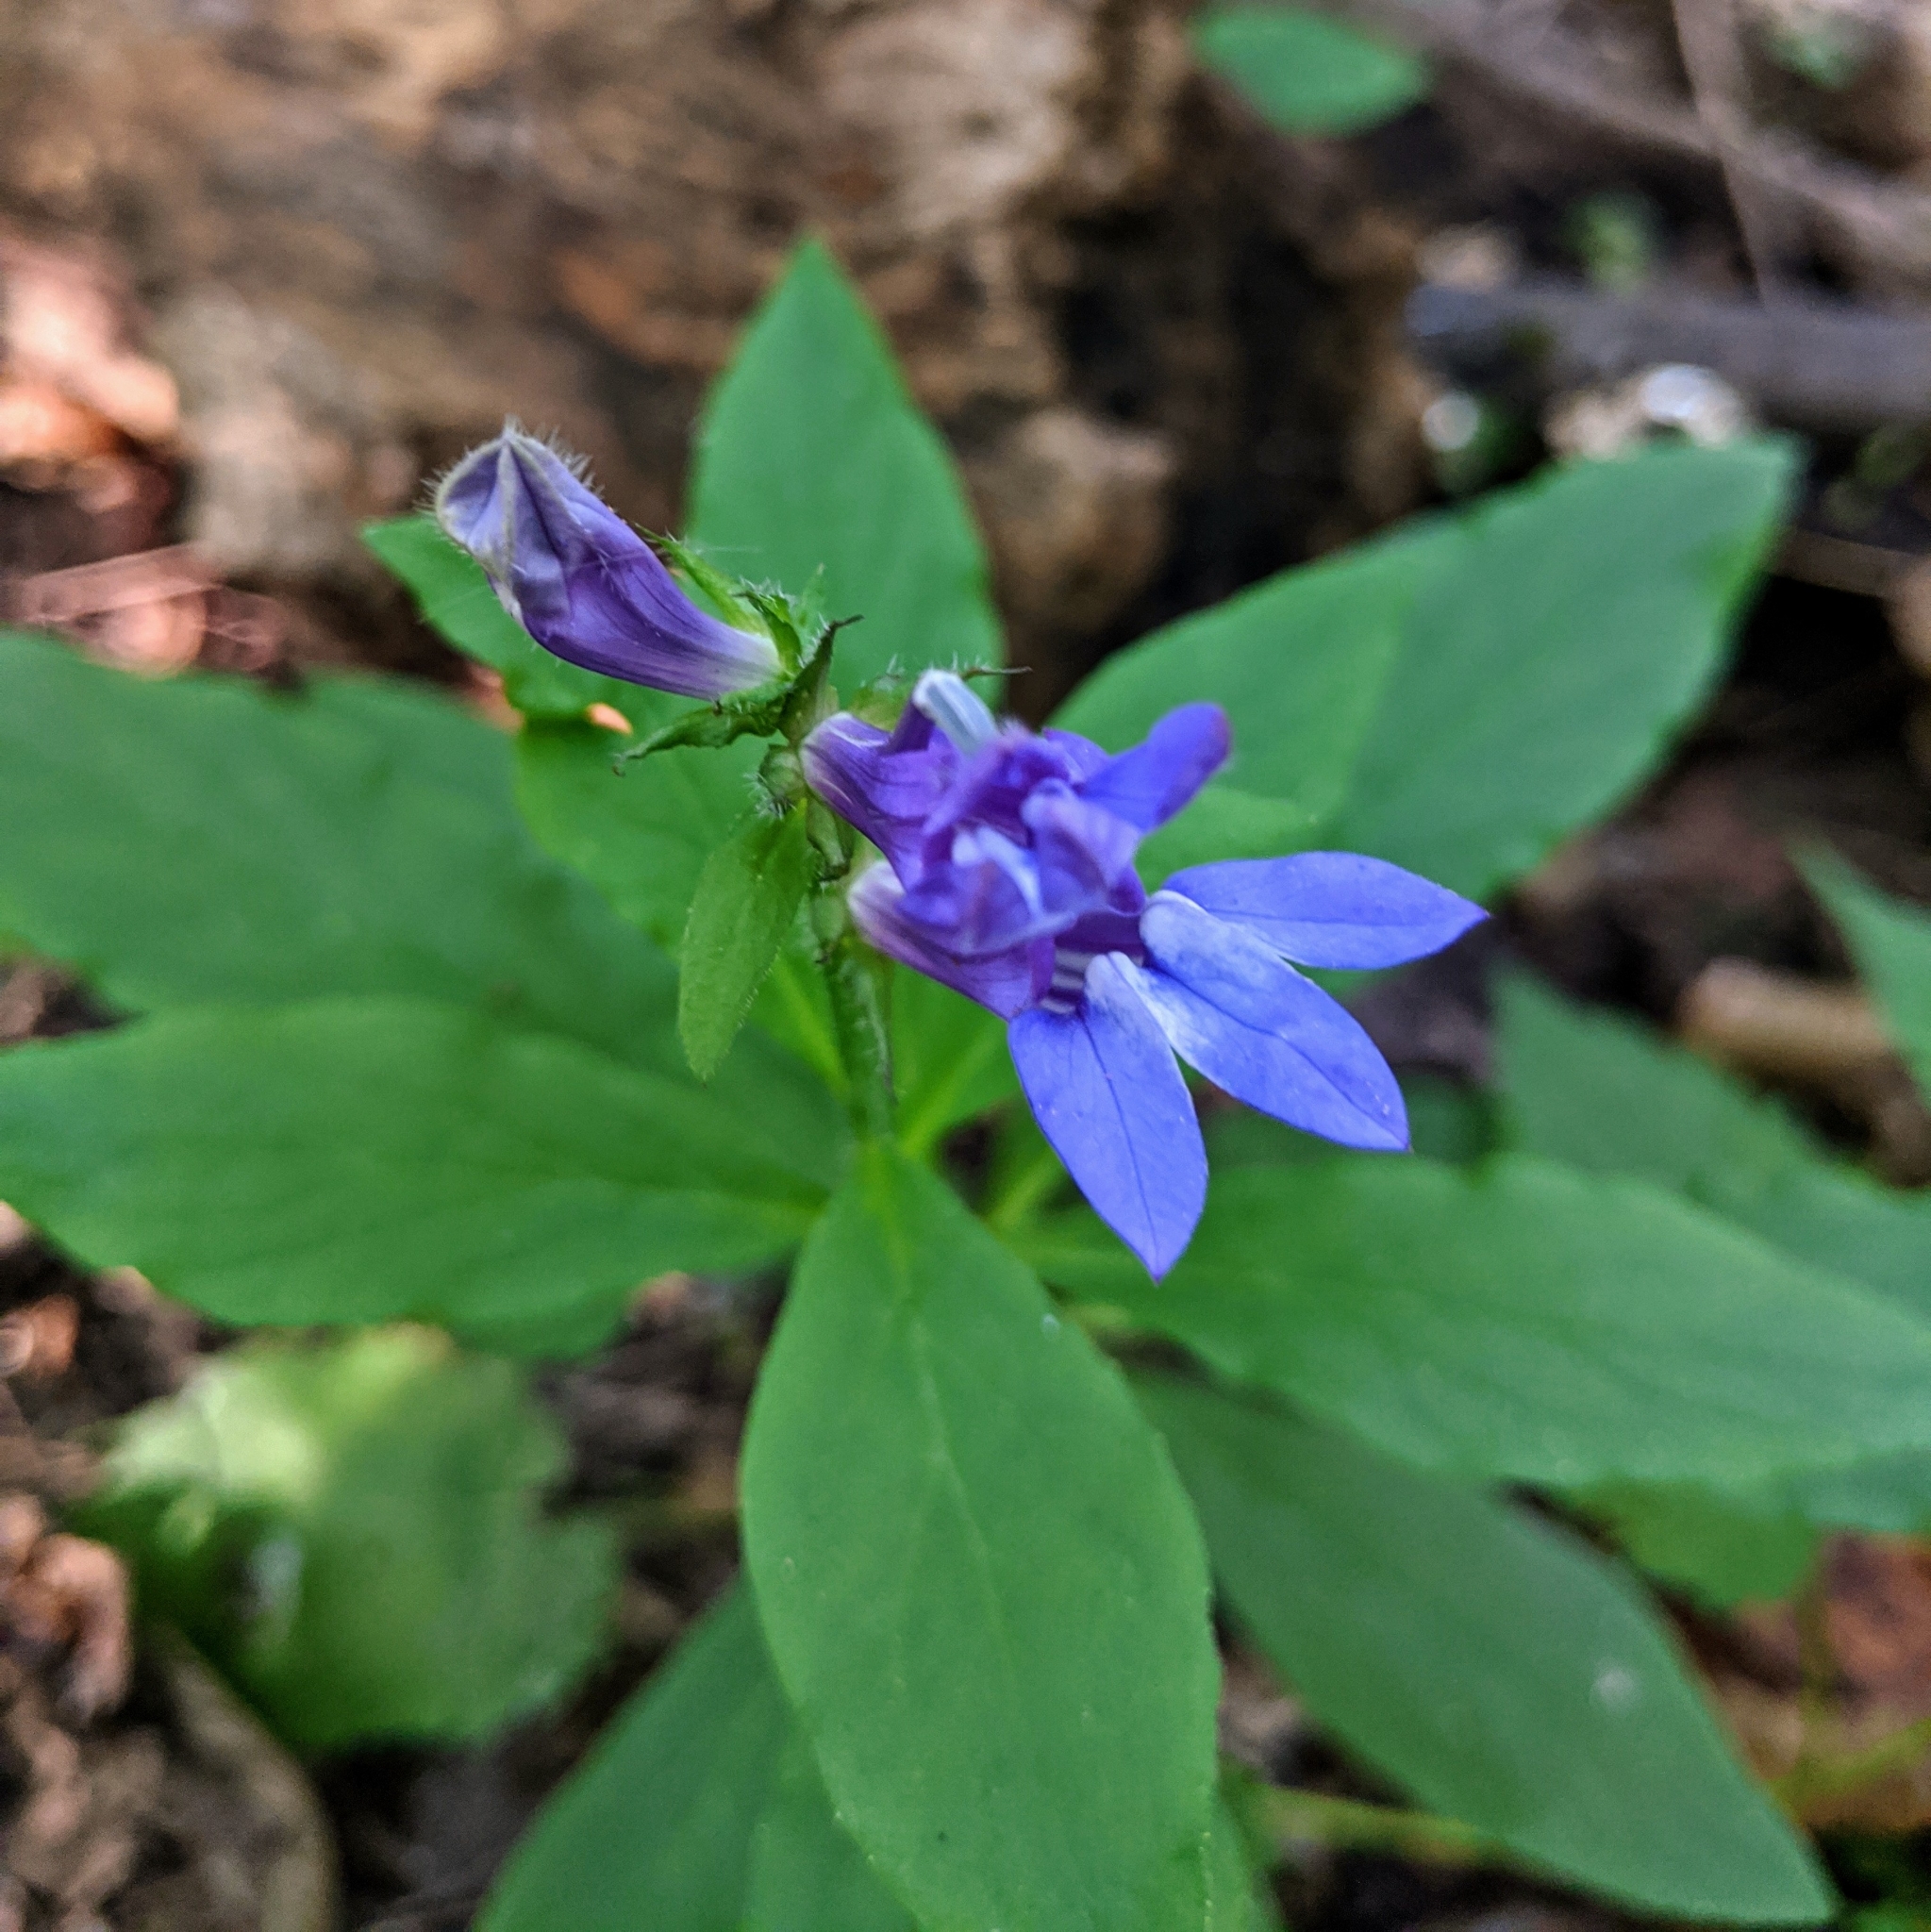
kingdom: Plantae
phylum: Tracheophyta
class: Magnoliopsida
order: Asterales
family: Campanulaceae
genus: Lobelia
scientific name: Lobelia siphilitica
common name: Great lobelia
